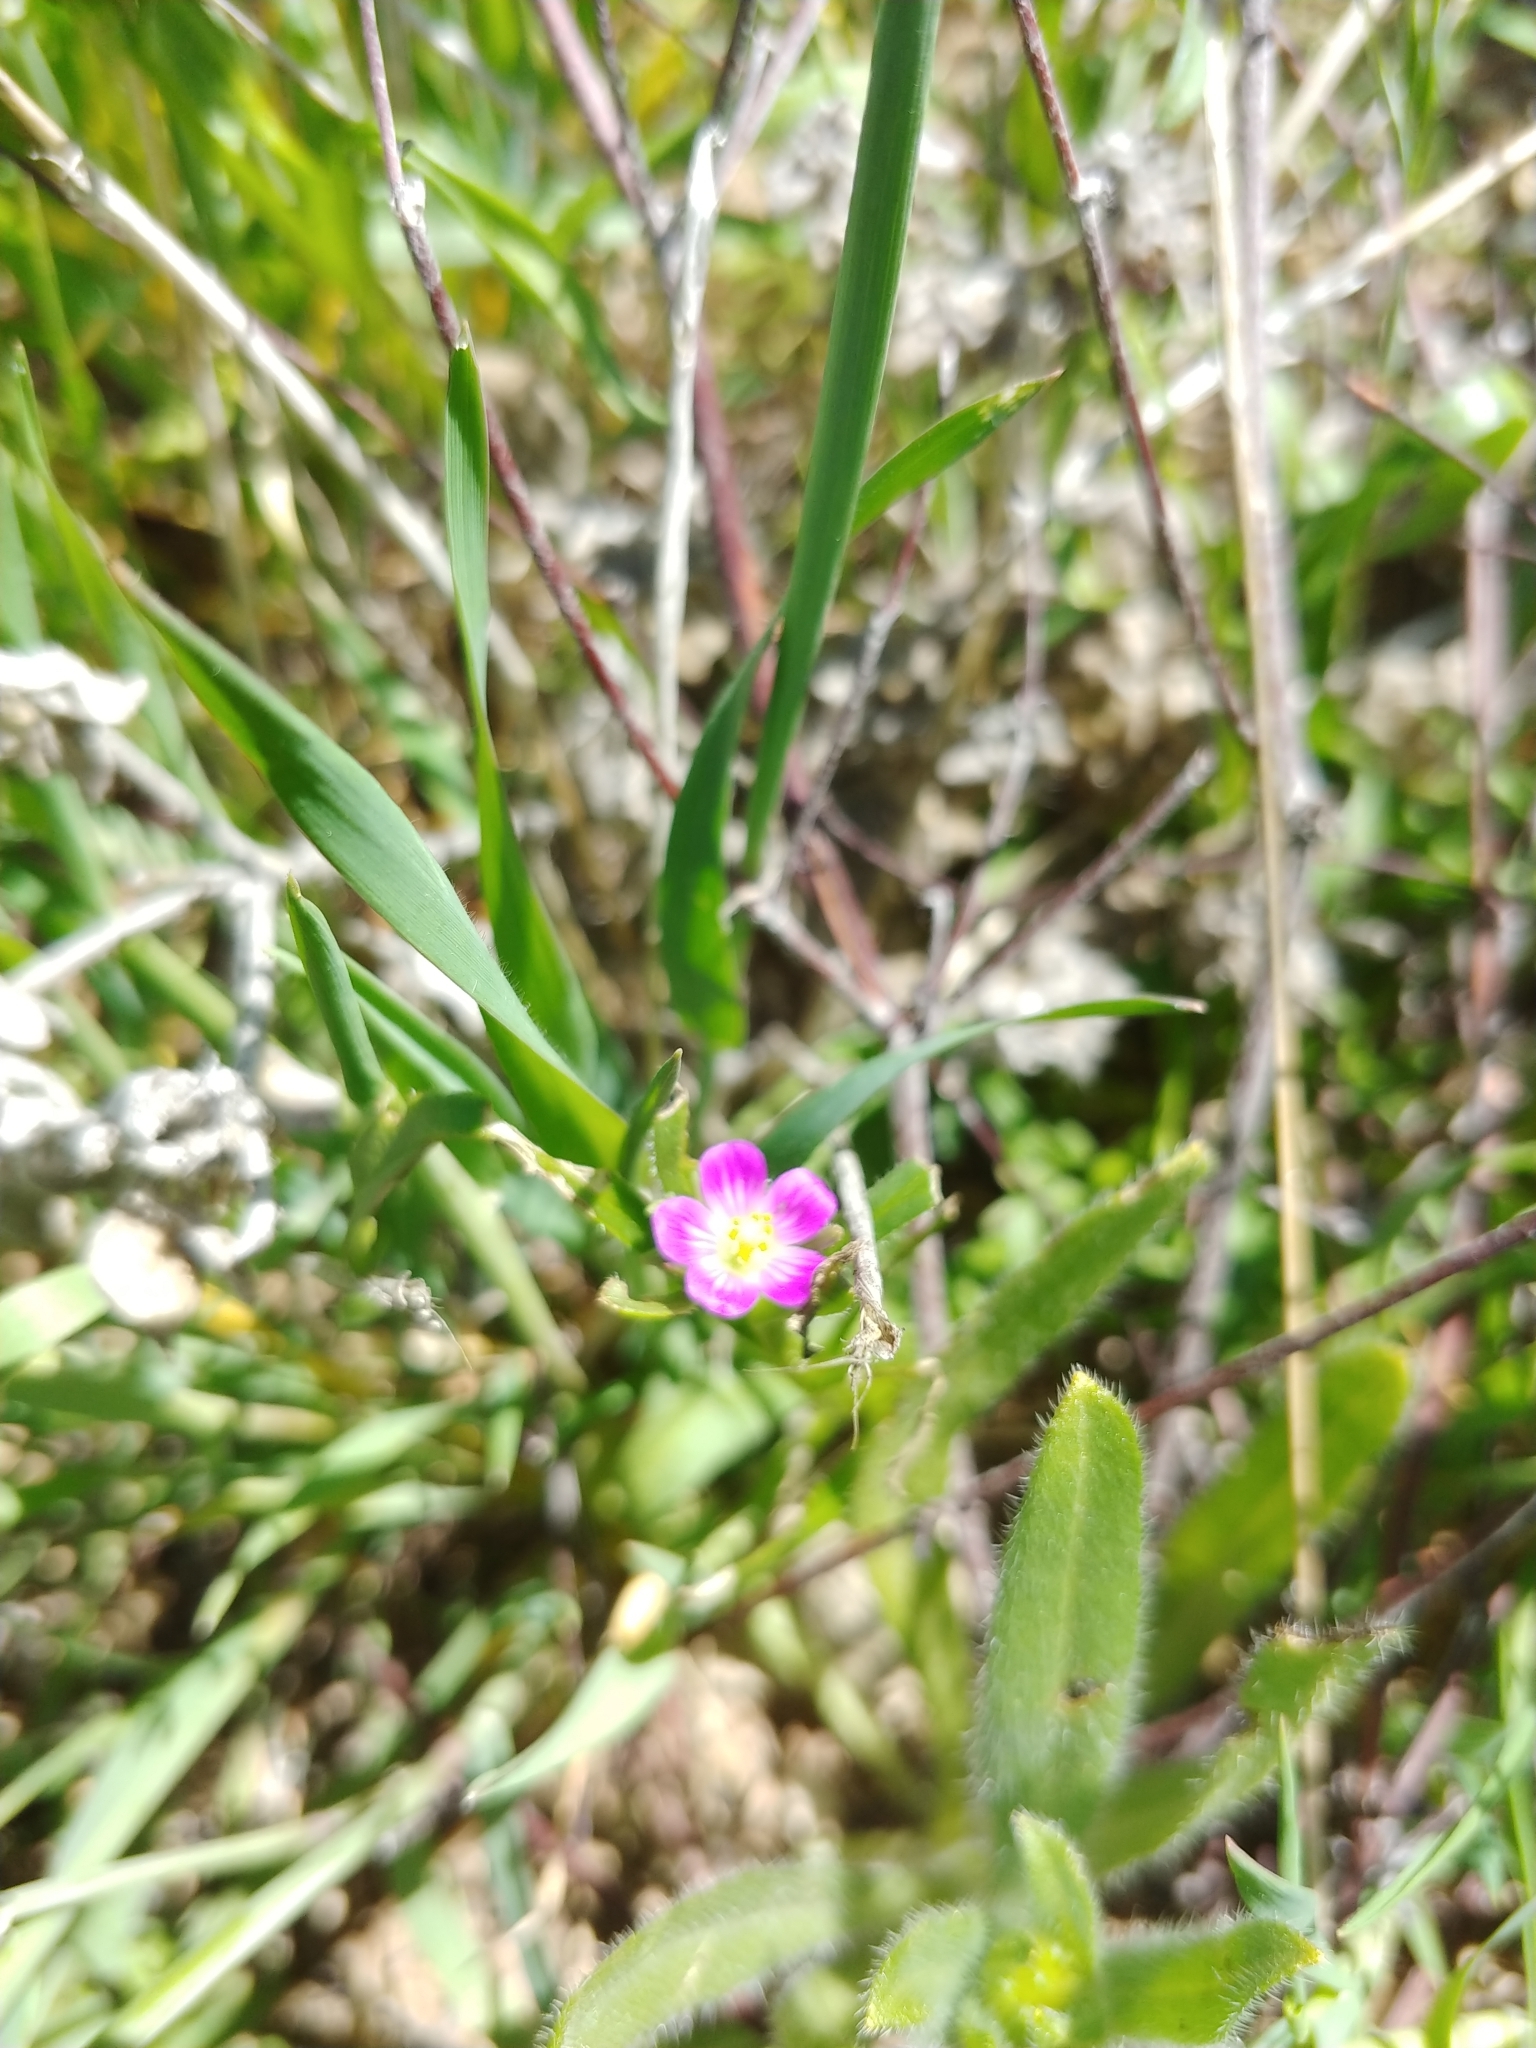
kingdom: Plantae
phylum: Tracheophyta
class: Magnoliopsida
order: Caryophyllales
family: Montiaceae
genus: Calandrinia
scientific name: Calandrinia menziesii
